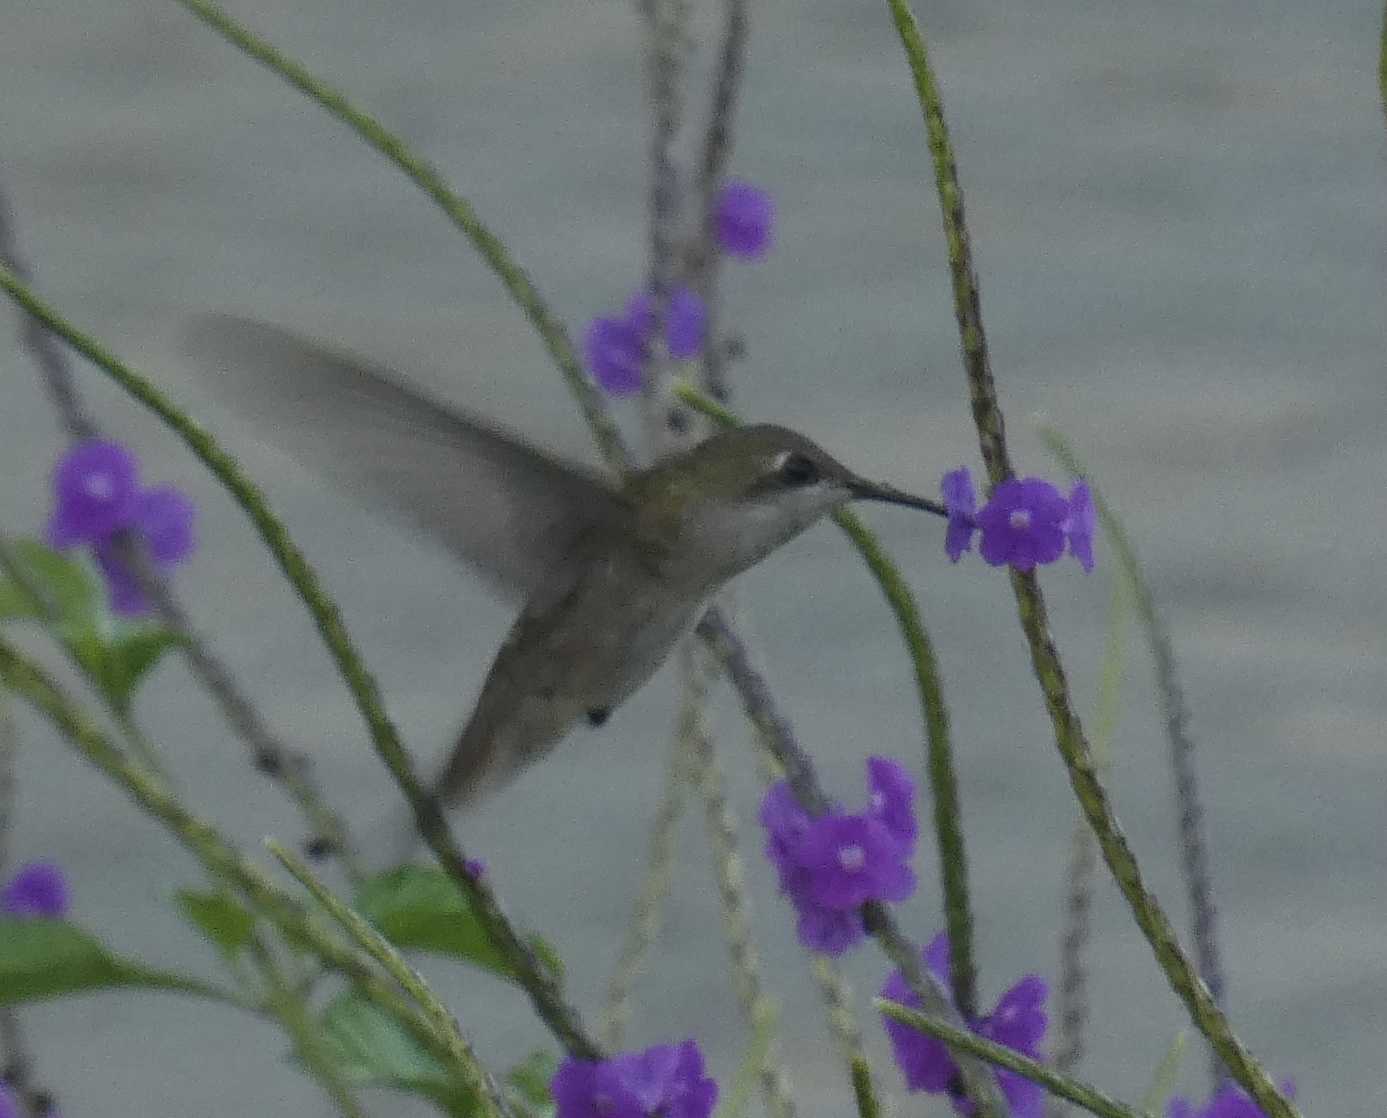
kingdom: Animalia
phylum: Chordata
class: Aves
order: Apodiformes
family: Trochilidae
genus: Chrysolampis
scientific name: Chrysolampis mosquitus
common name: Ruby-topaz hummingbird
